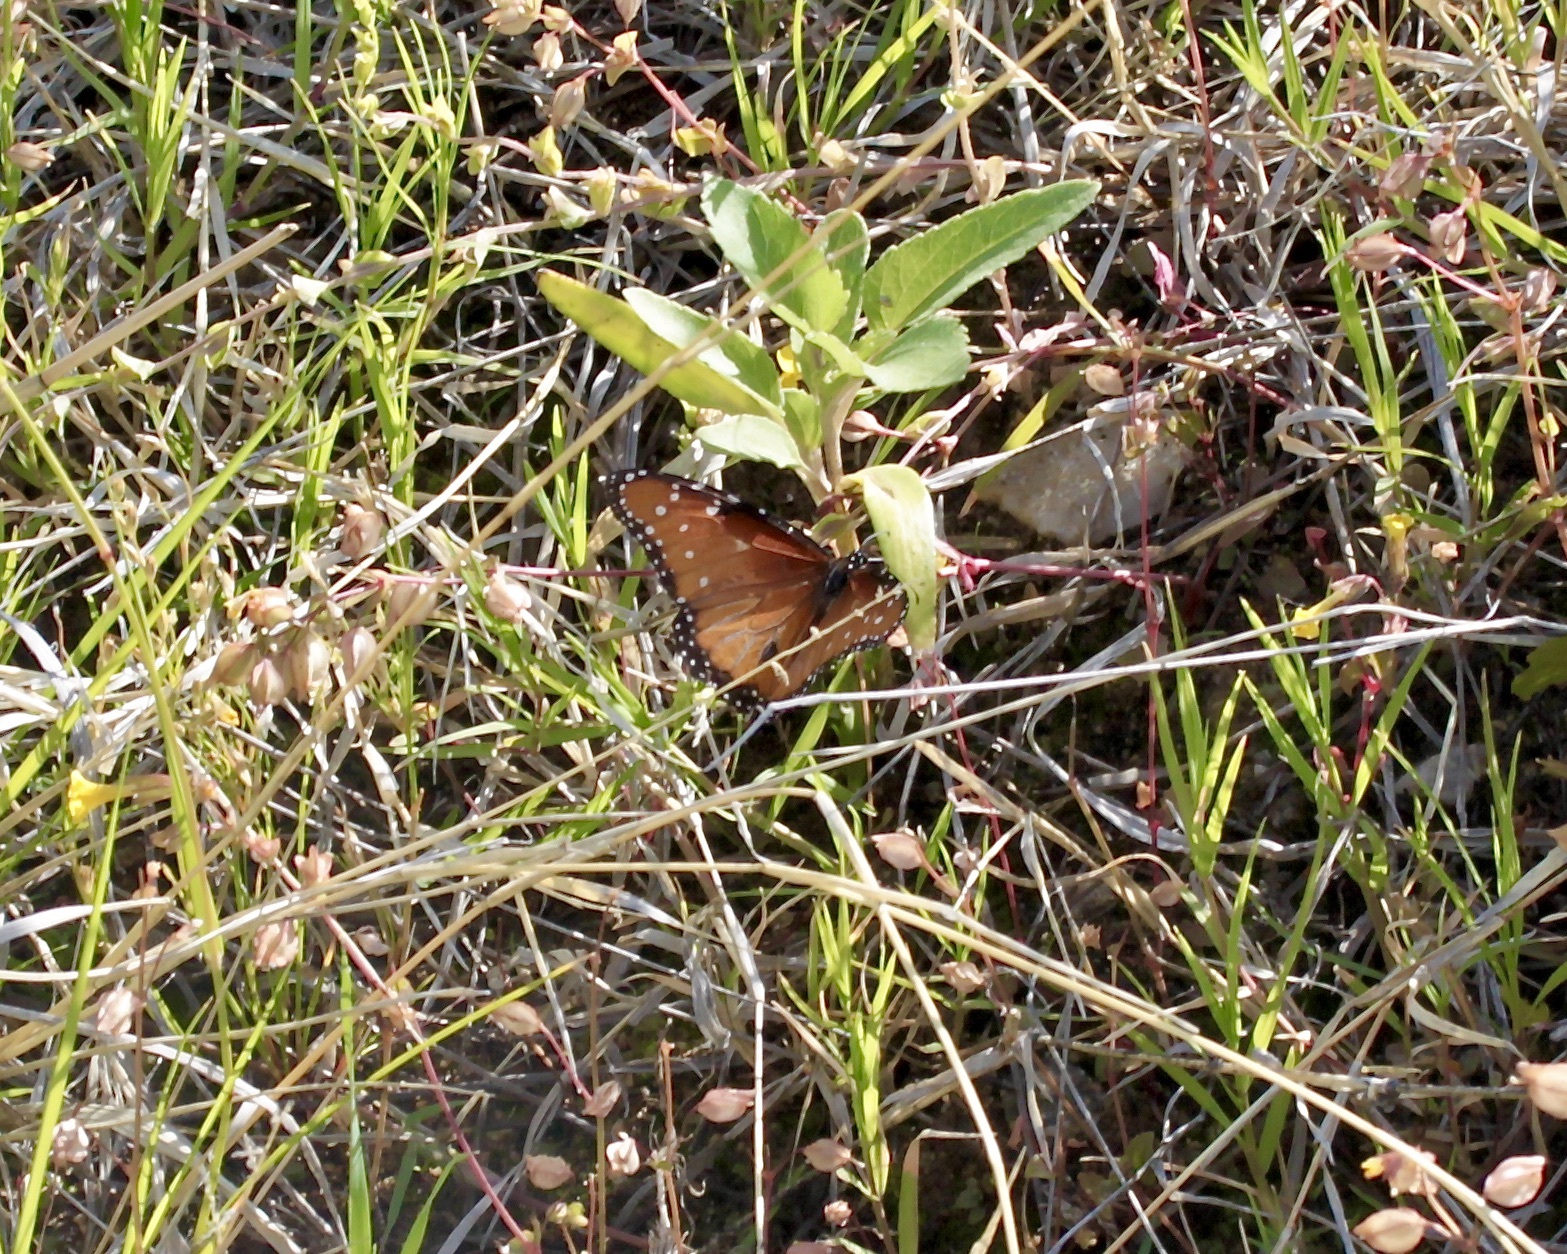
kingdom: Animalia
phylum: Arthropoda
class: Insecta
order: Lepidoptera
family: Nymphalidae
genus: Danaus
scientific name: Danaus gilippus
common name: Queen
